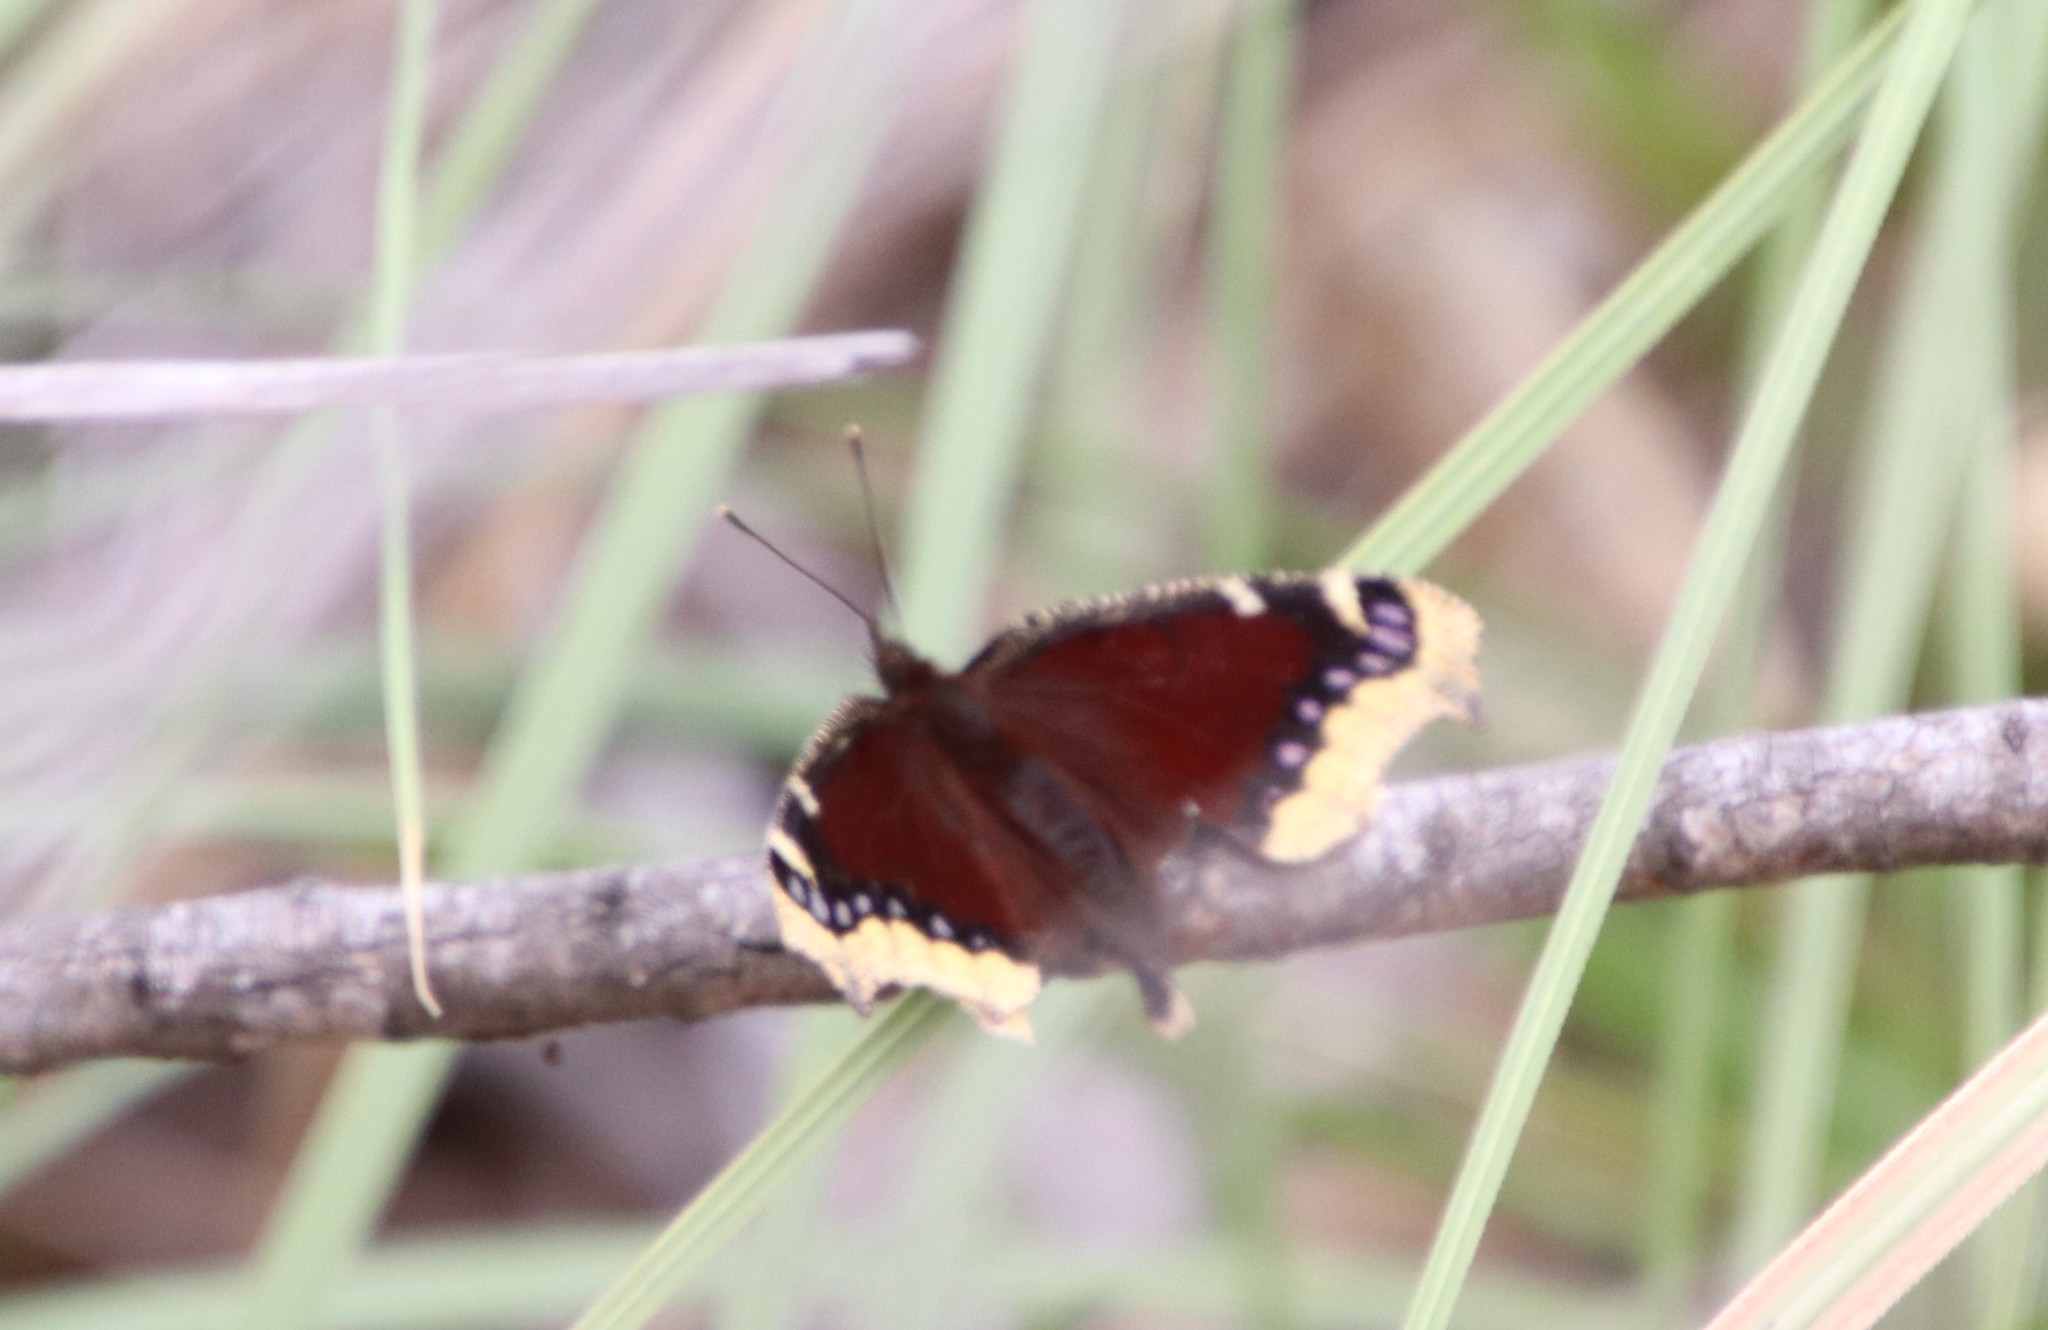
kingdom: Animalia
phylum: Arthropoda
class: Insecta
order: Lepidoptera
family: Nymphalidae
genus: Nymphalis
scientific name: Nymphalis antiopa
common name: Camberwell beauty
